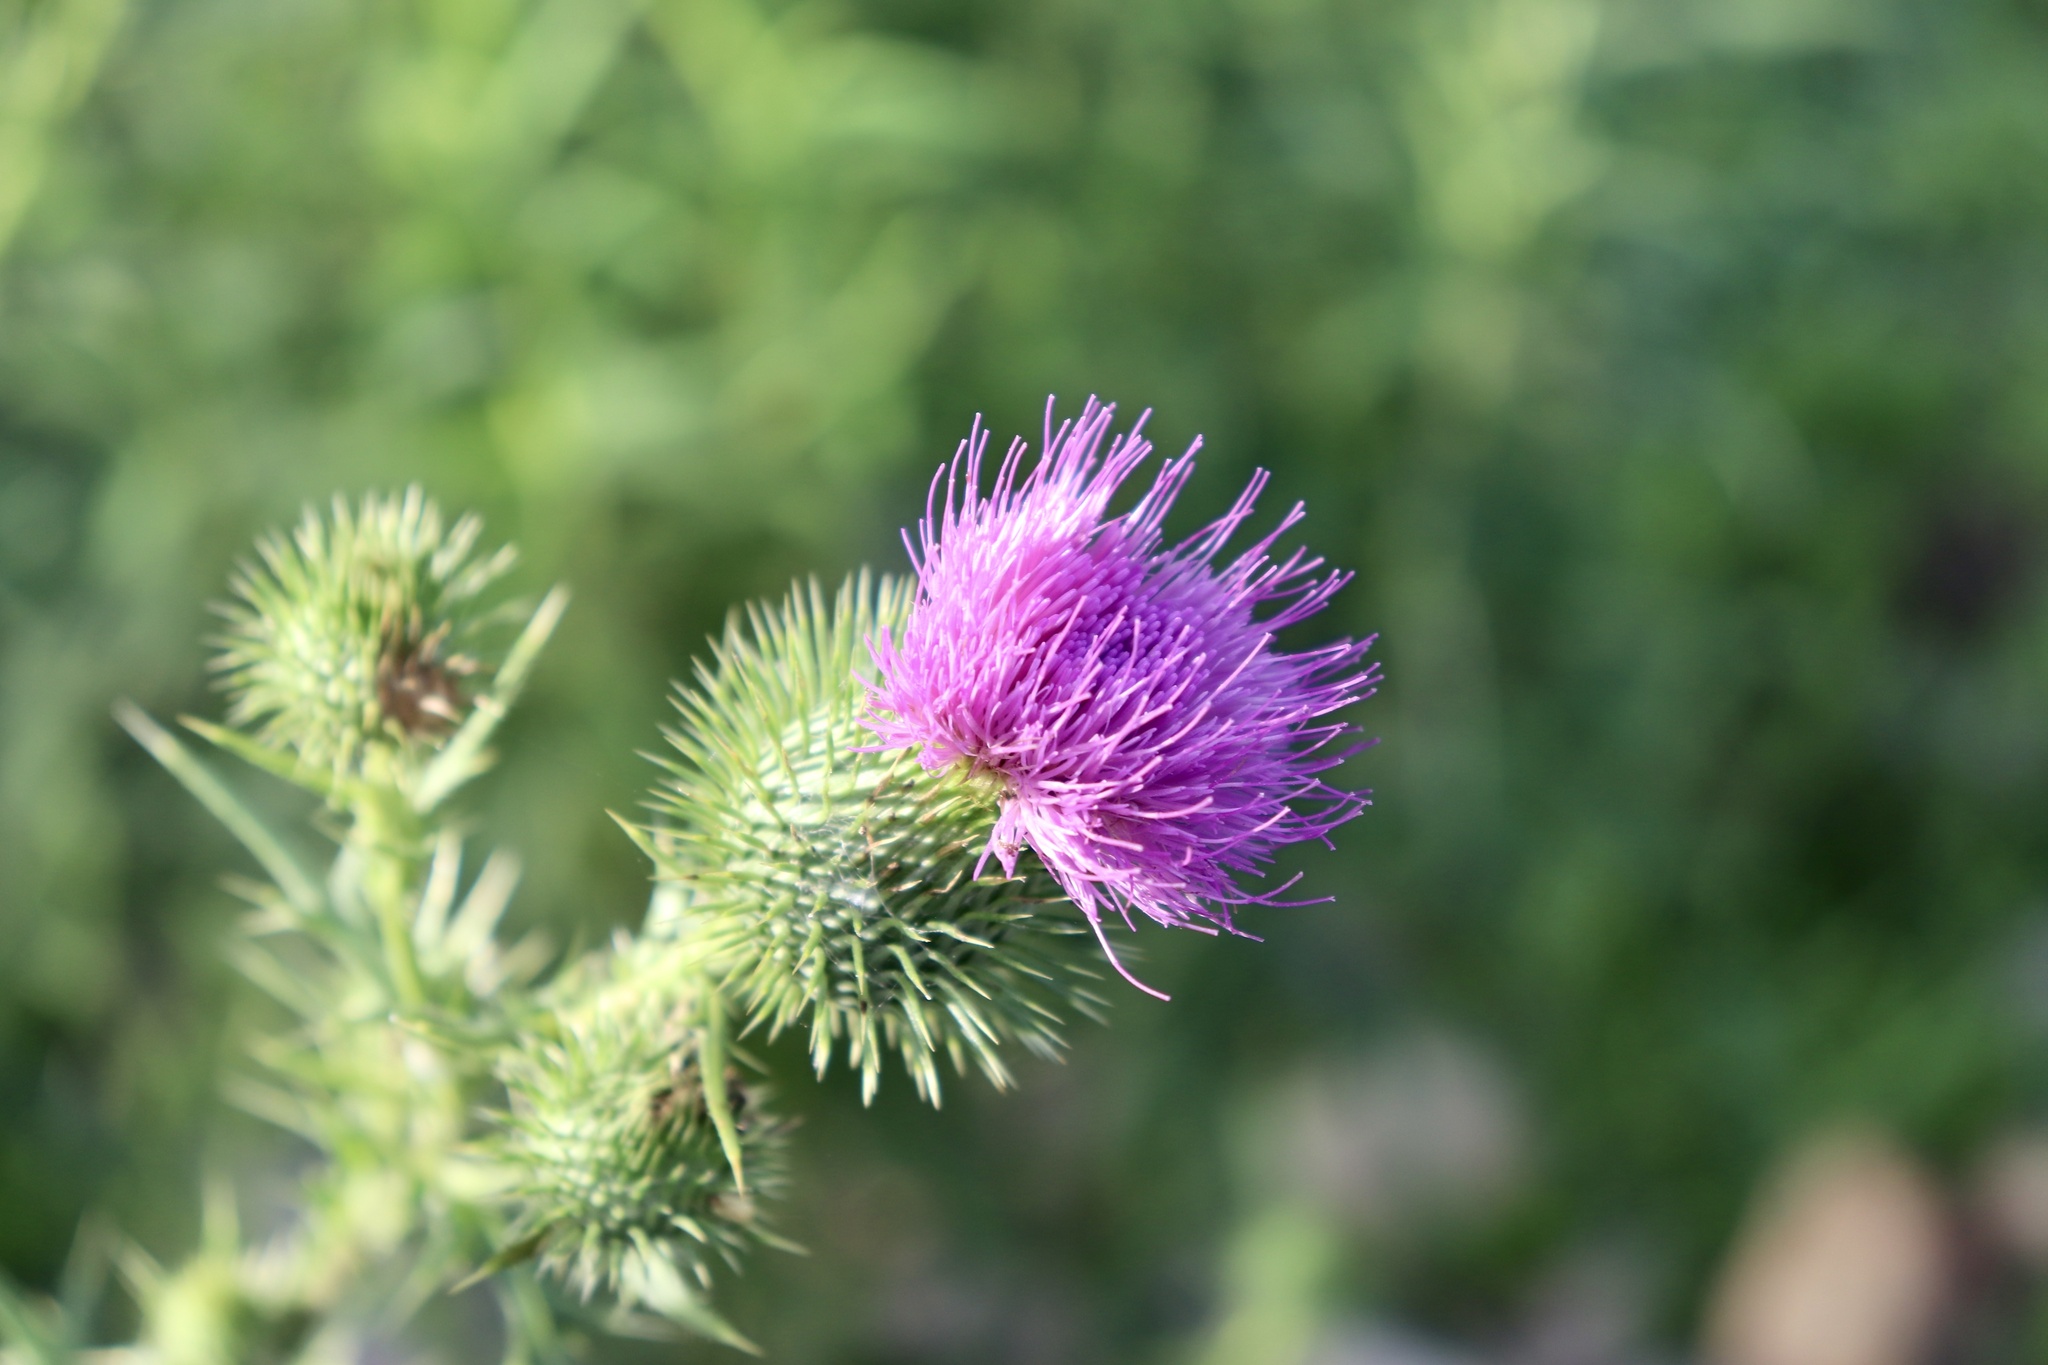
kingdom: Plantae
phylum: Tracheophyta
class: Magnoliopsida
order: Asterales
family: Asteraceae
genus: Cirsium
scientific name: Cirsium vulgare
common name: Bull thistle
